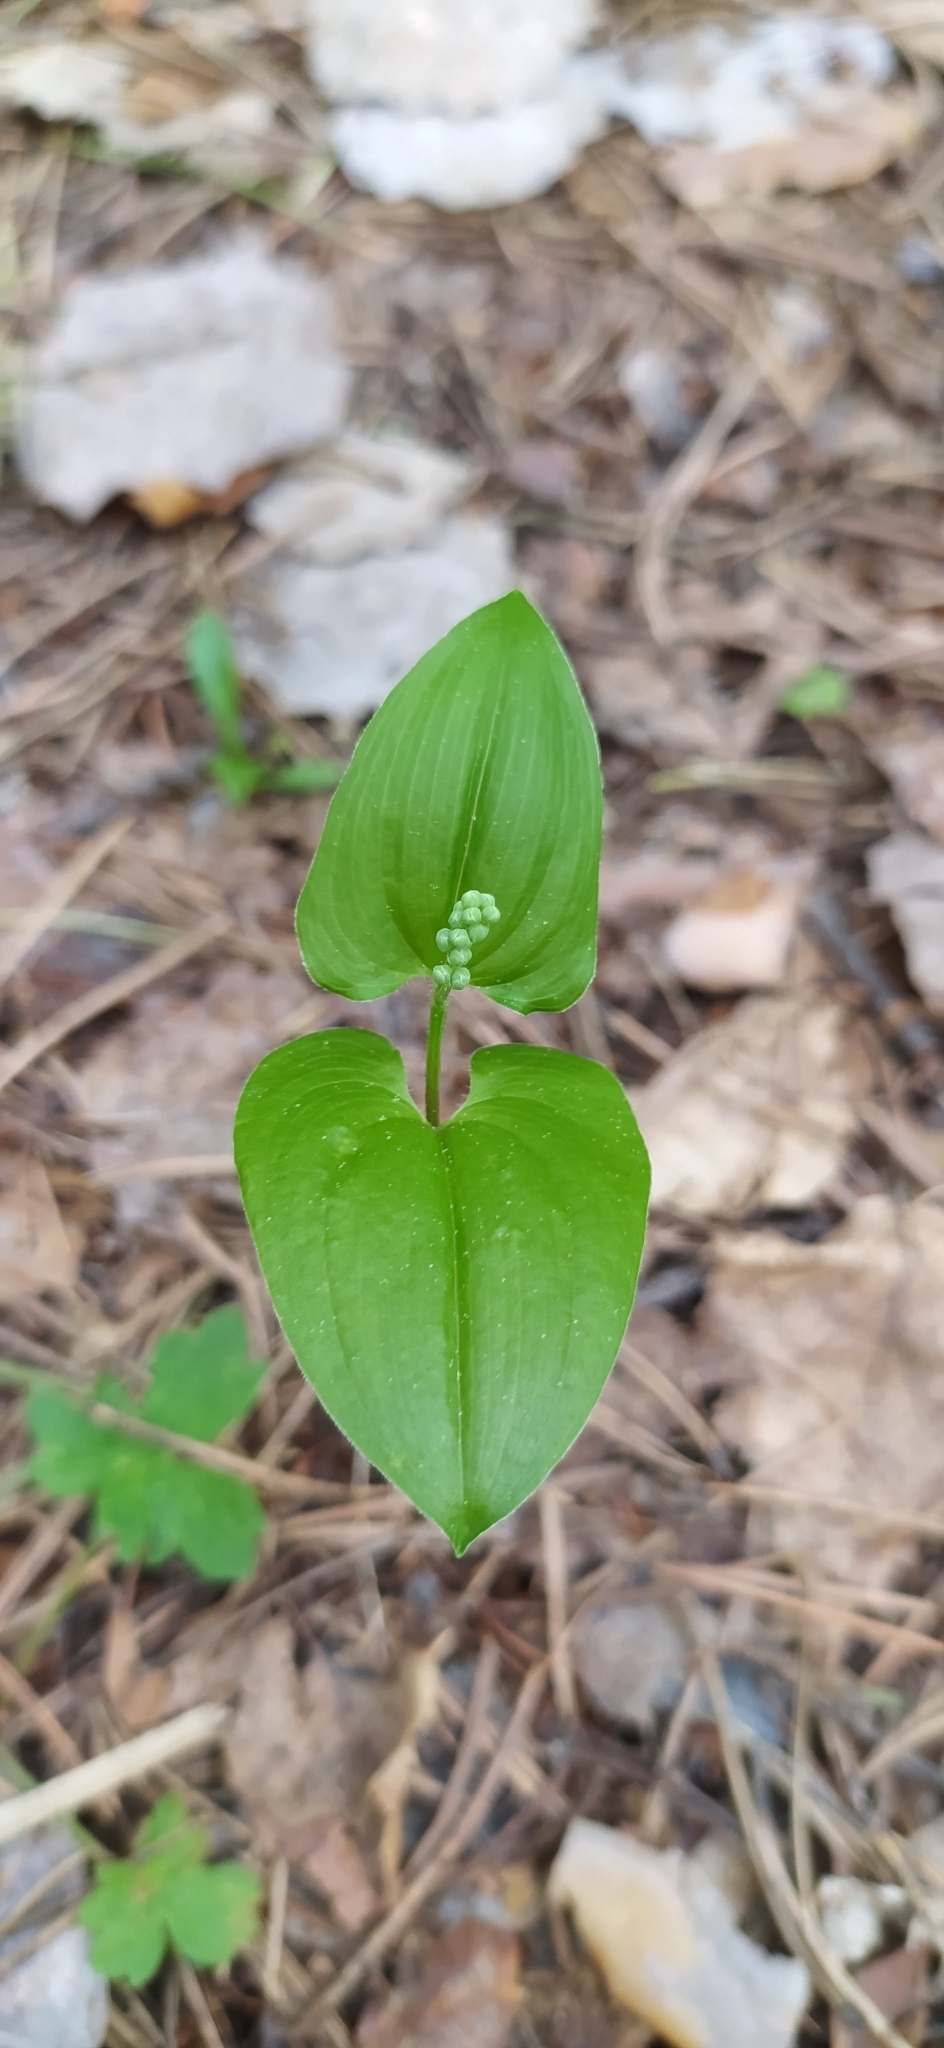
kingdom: Plantae
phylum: Tracheophyta
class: Liliopsida
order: Asparagales
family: Asparagaceae
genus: Maianthemum
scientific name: Maianthemum bifolium
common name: May lily
